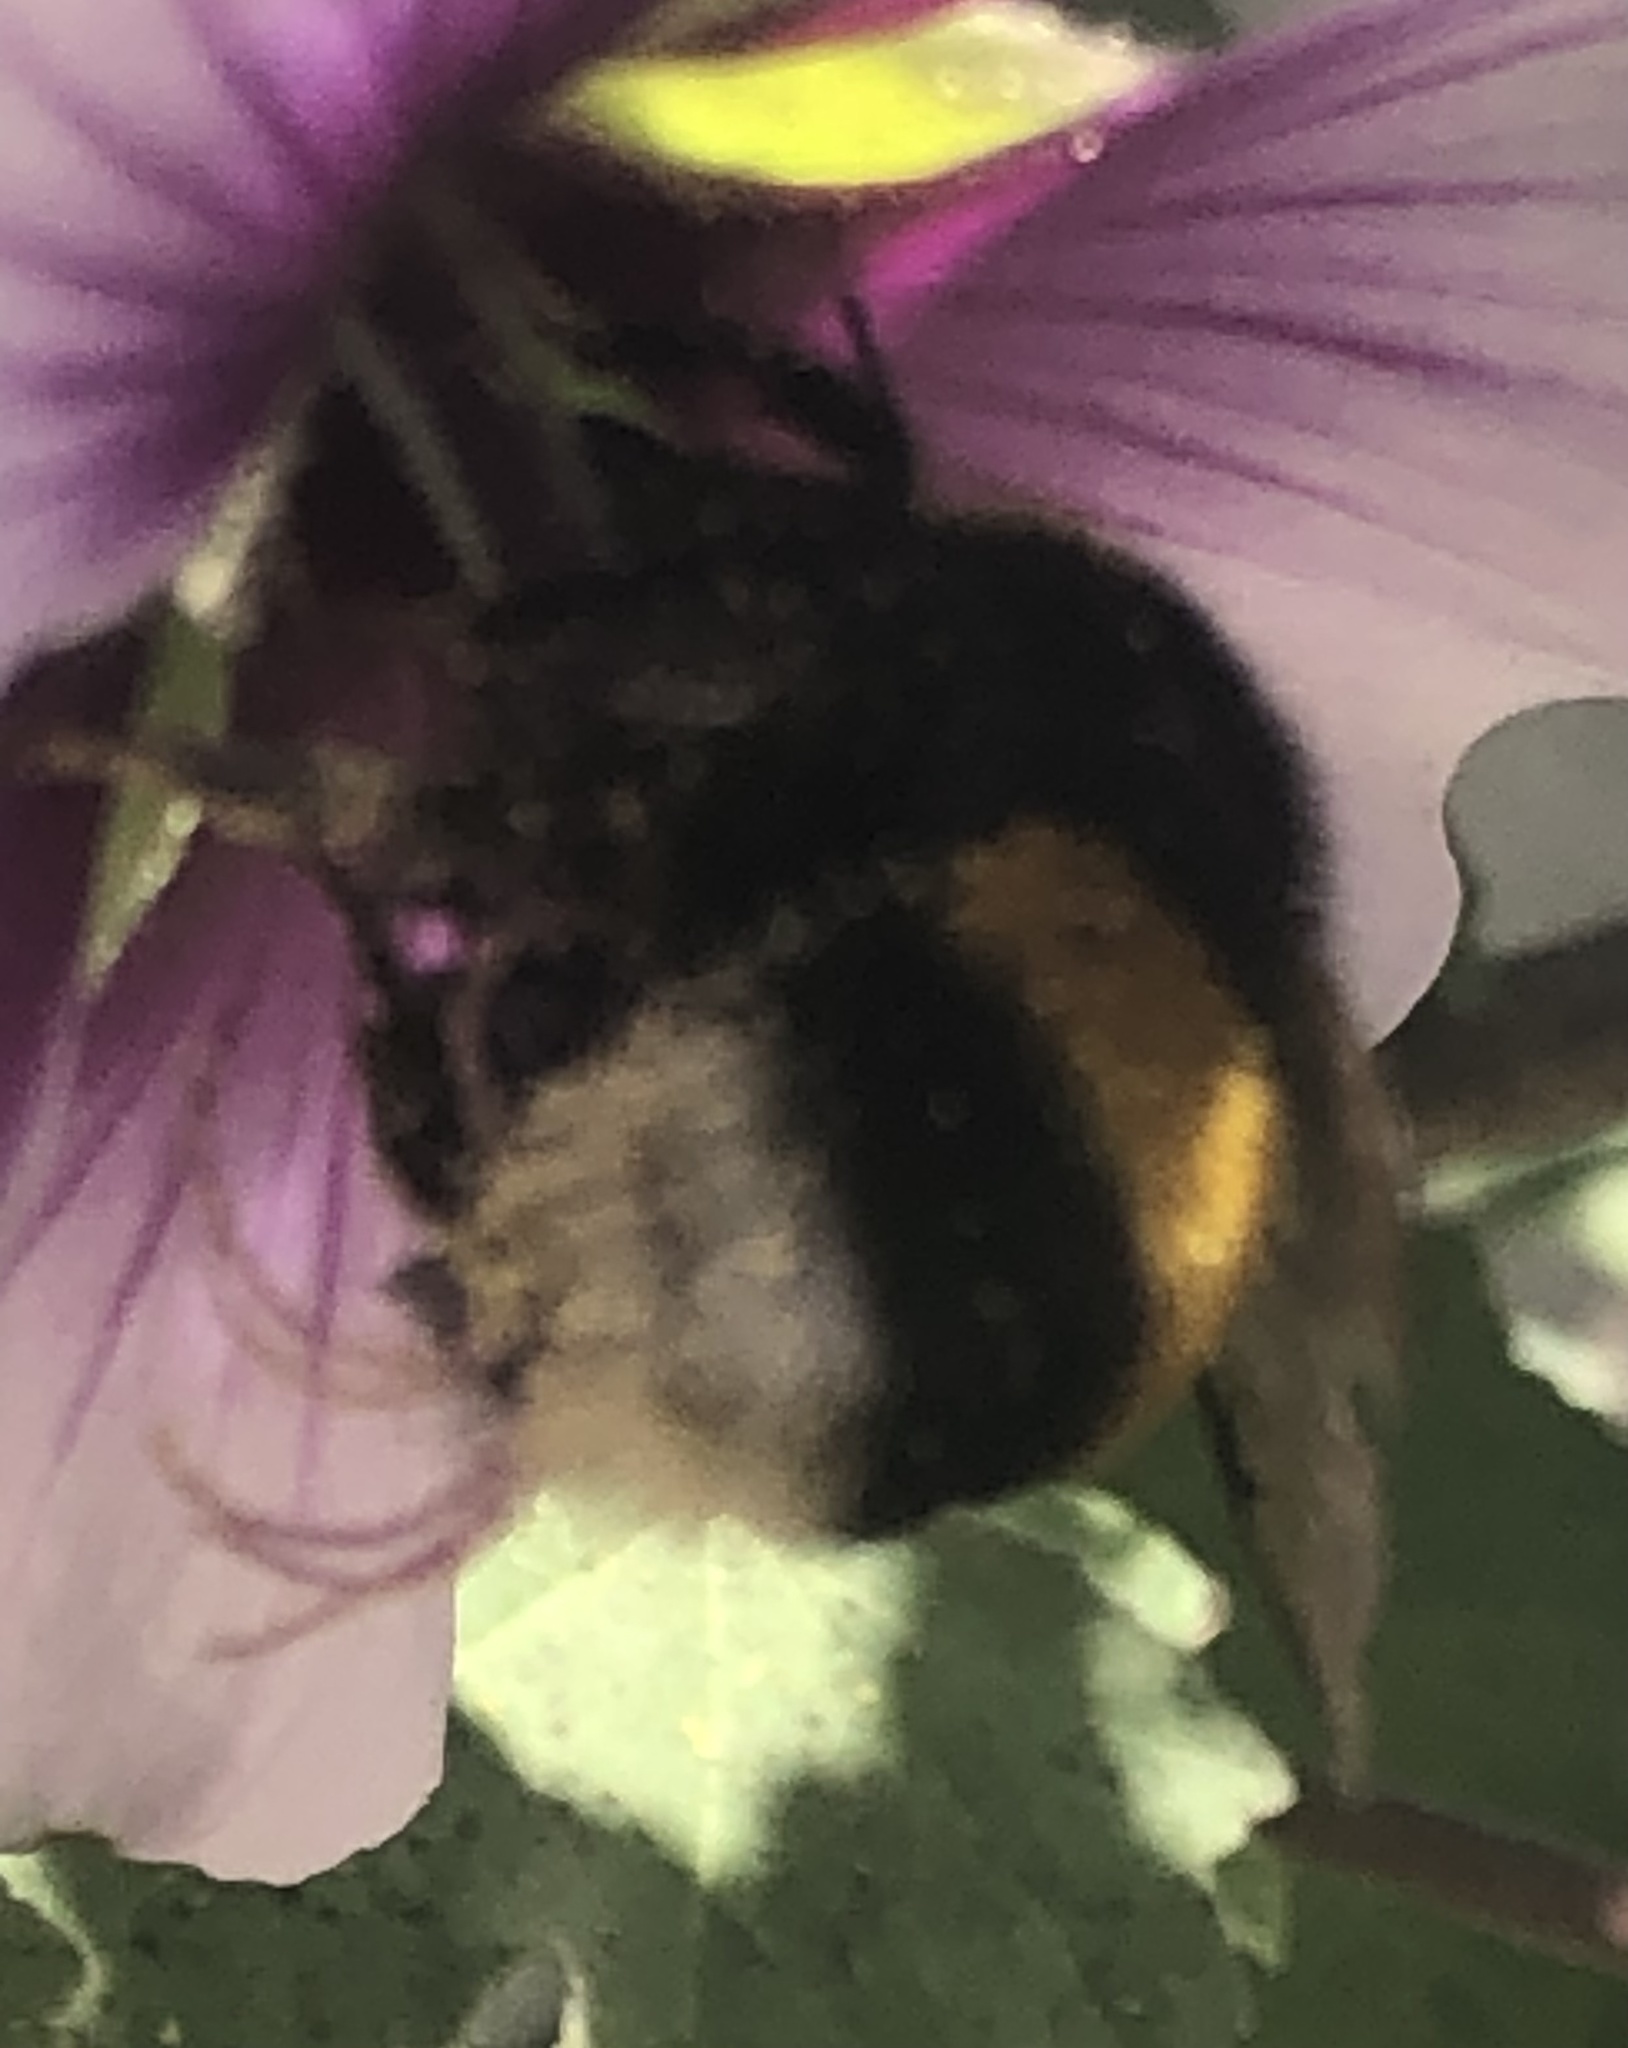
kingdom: Animalia
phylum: Arthropoda
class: Insecta
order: Hymenoptera
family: Apidae
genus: Bombus
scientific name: Bombus terrestris
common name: Buff-tailed bumblebee
